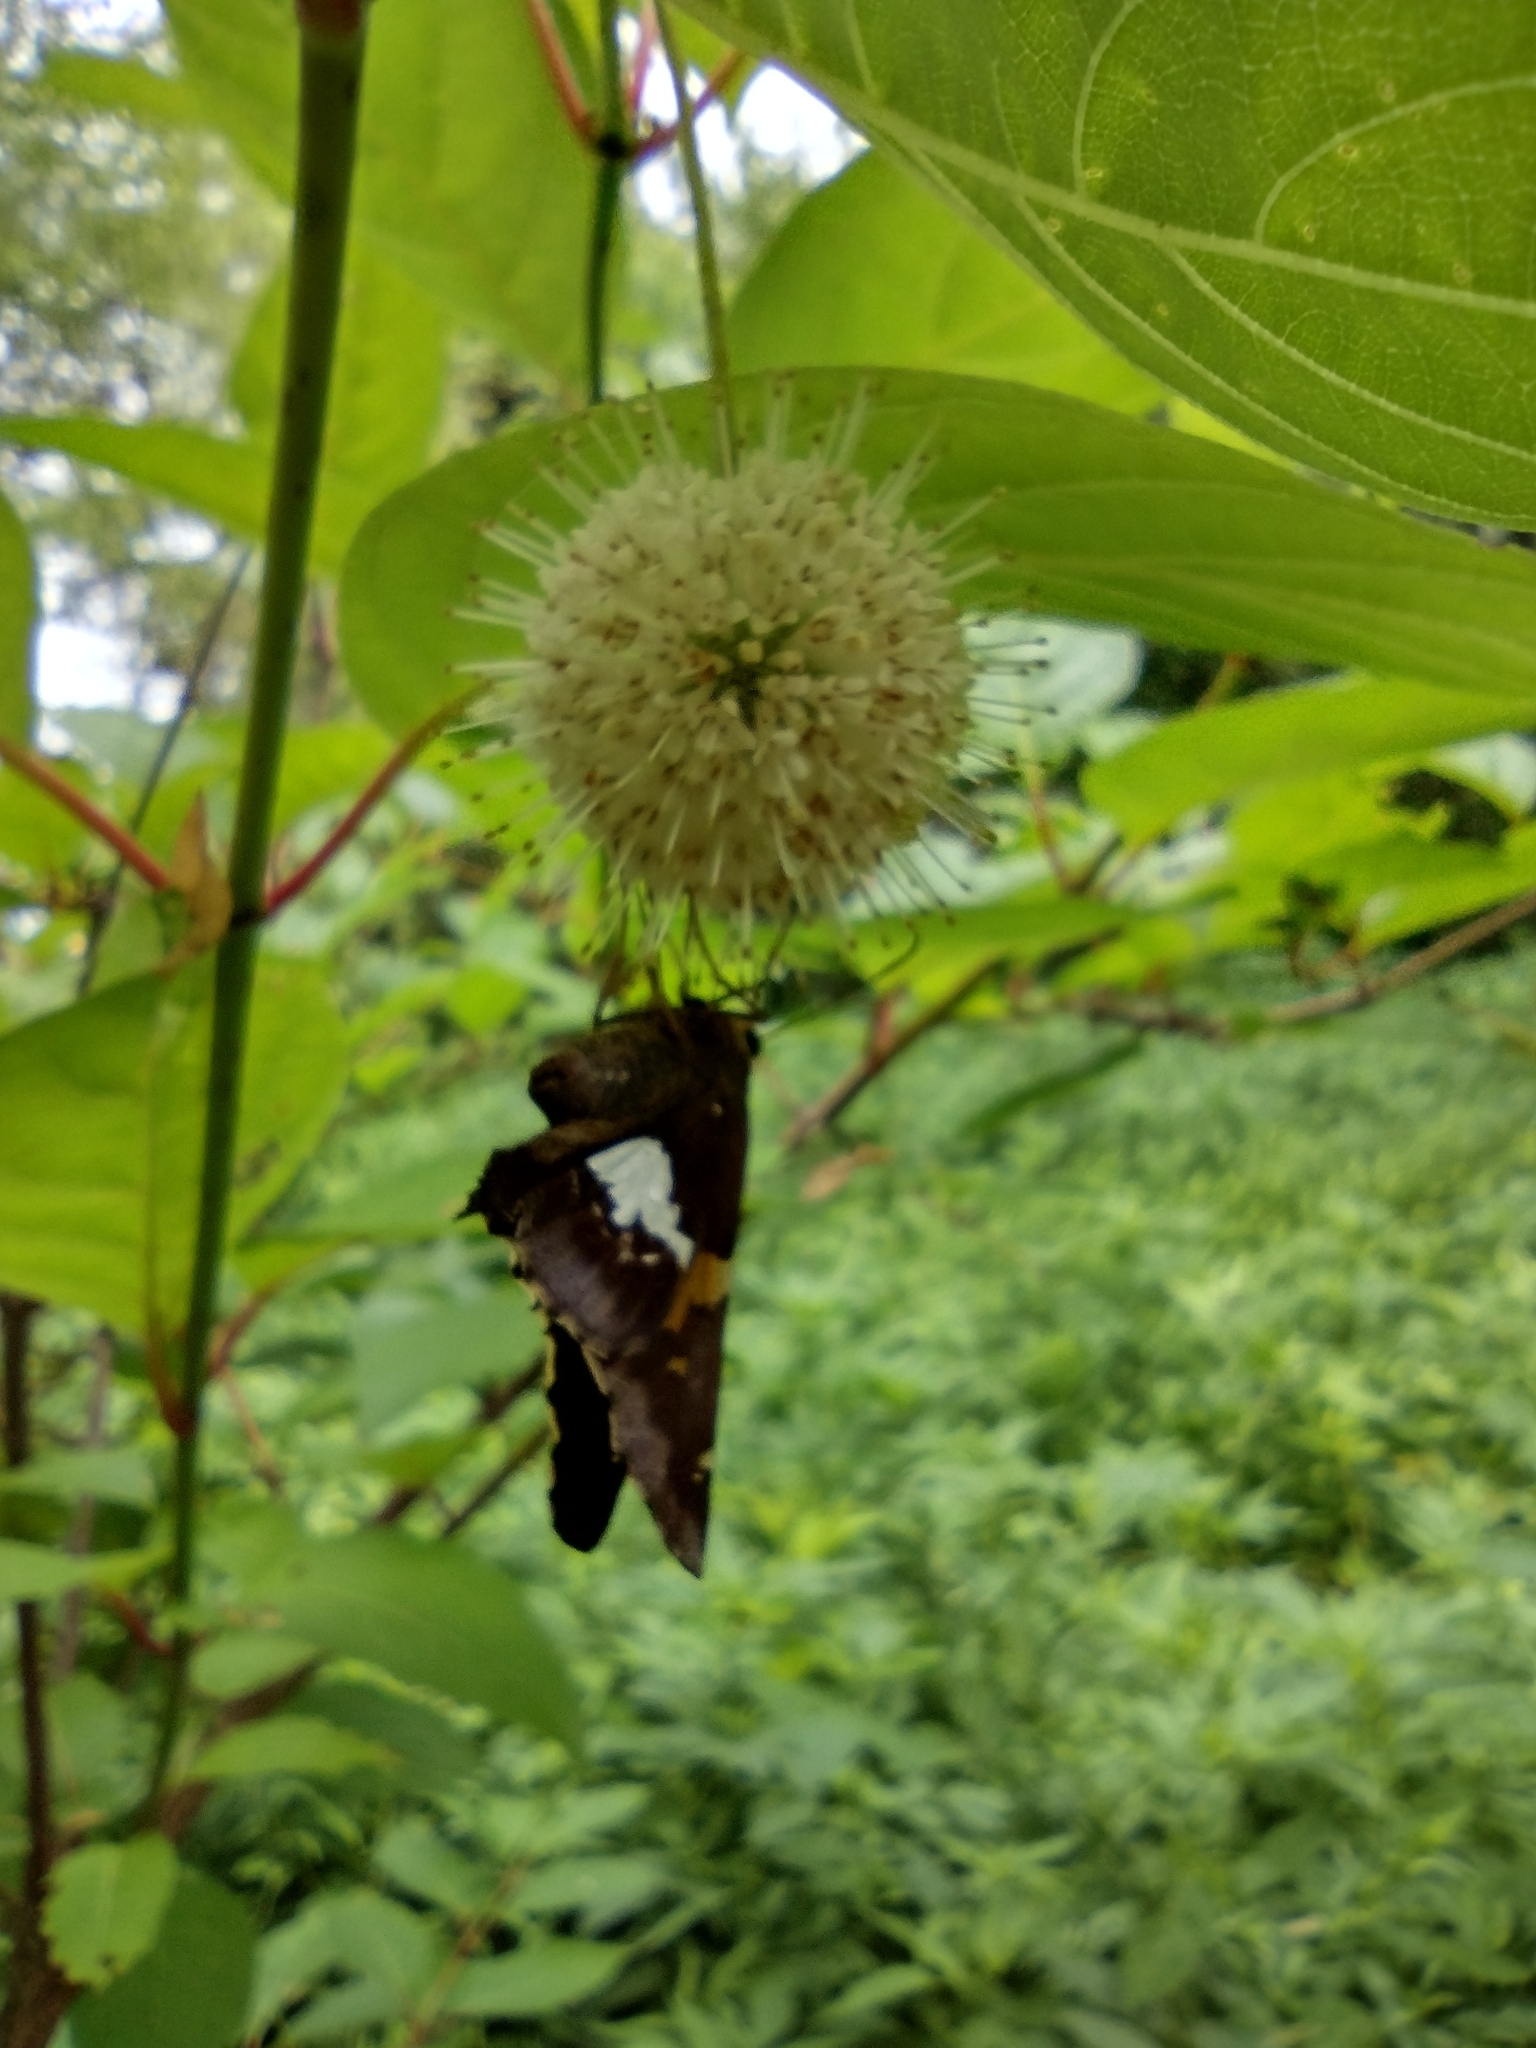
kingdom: Animalia
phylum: Arthropoda
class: Insecta
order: Lepidoptera
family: Hesperiidae
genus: Epargyreus
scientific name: Epargyreus clarus
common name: Silver-spotted skipper
